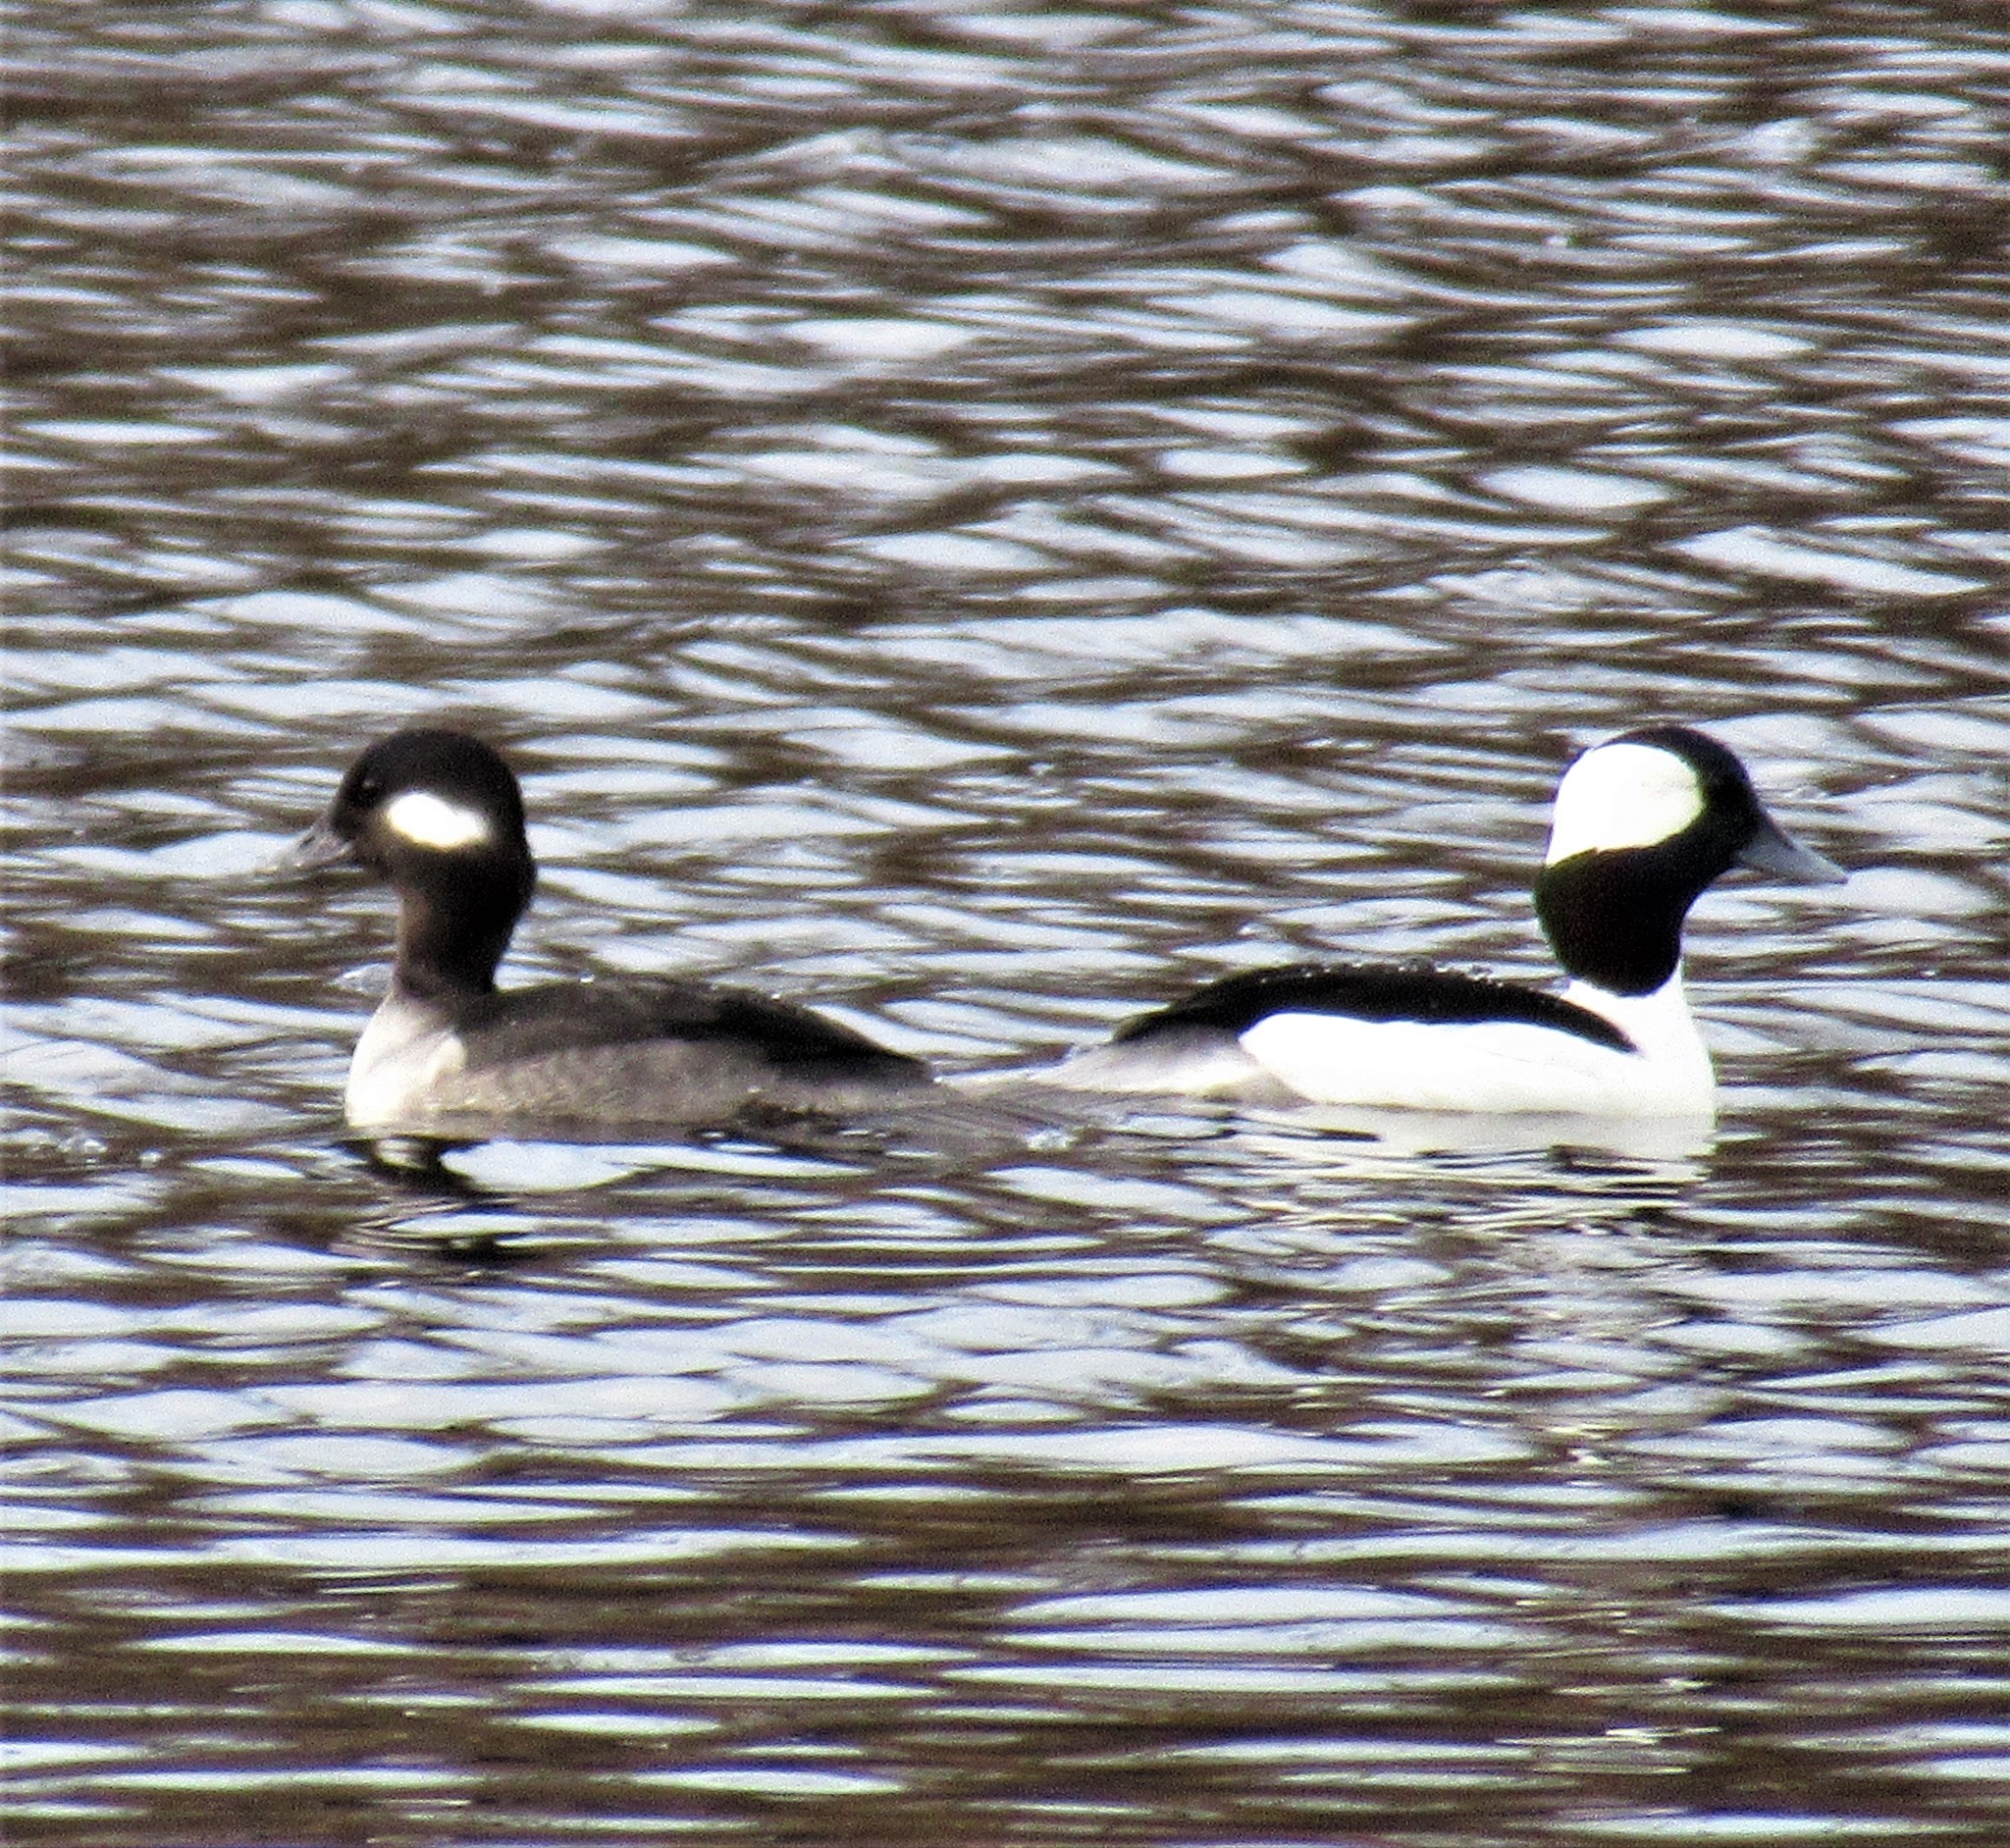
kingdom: Animalia
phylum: Chordata
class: Aves
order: Anseriformes
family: Anatidae
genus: Bucephala
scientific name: Bucephala albeola
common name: Bufflehead
